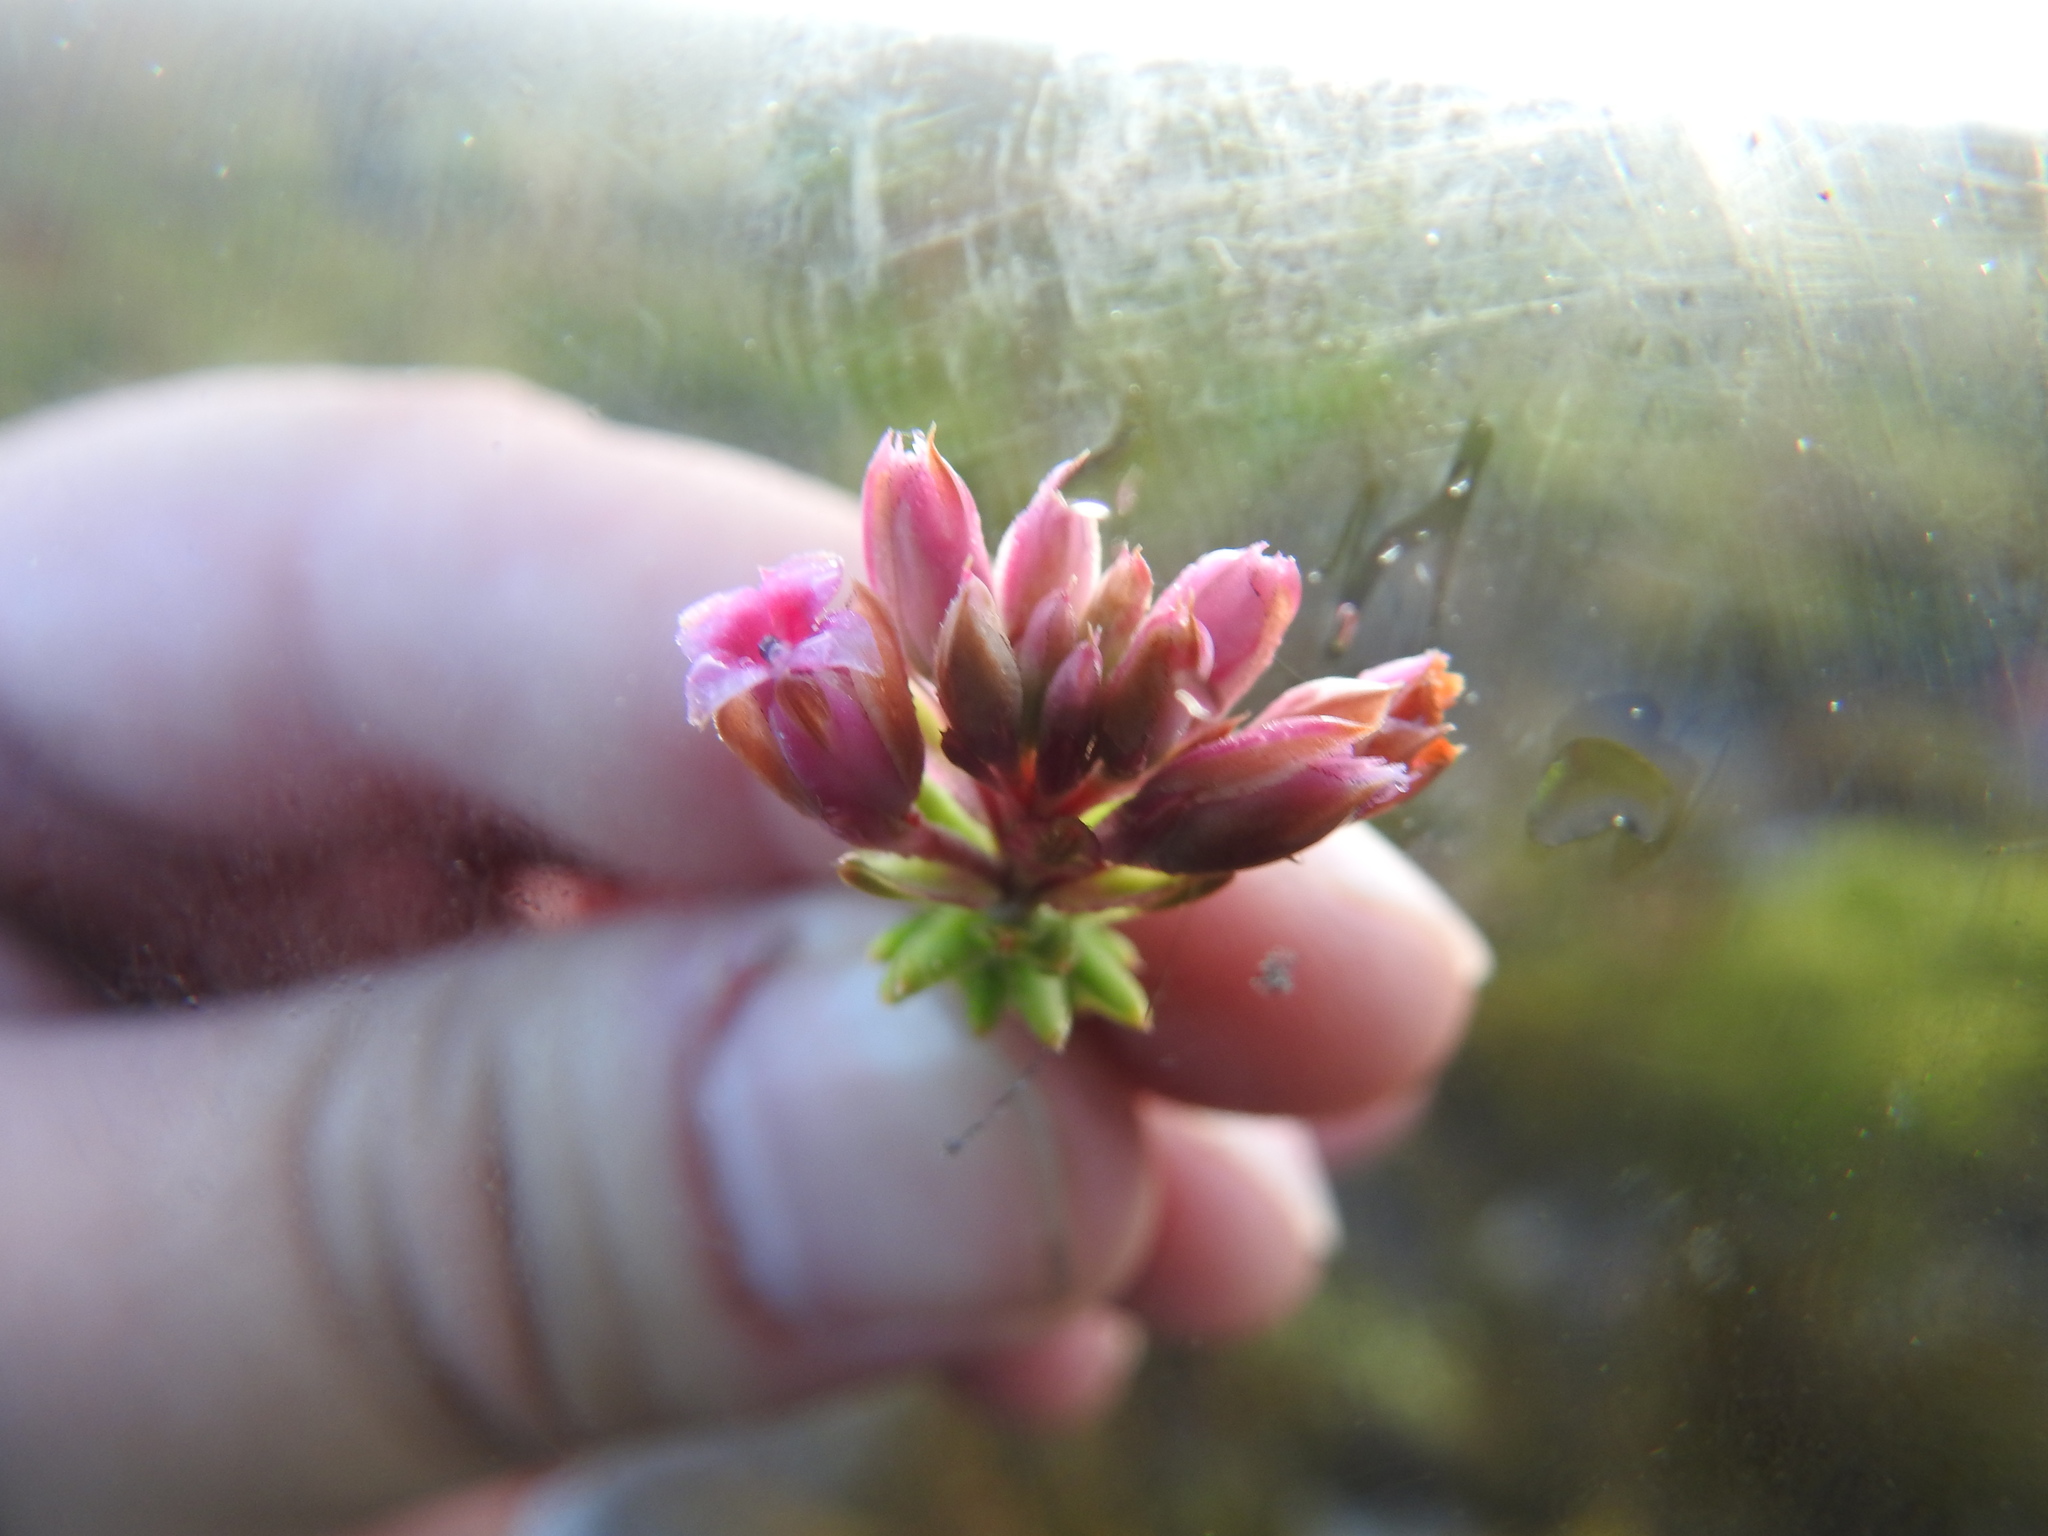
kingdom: Plantae
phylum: Tracheophyta
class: Magnoliopsida
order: Ericales
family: Ericaceae
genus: Erica
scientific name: Erica taxifolia
